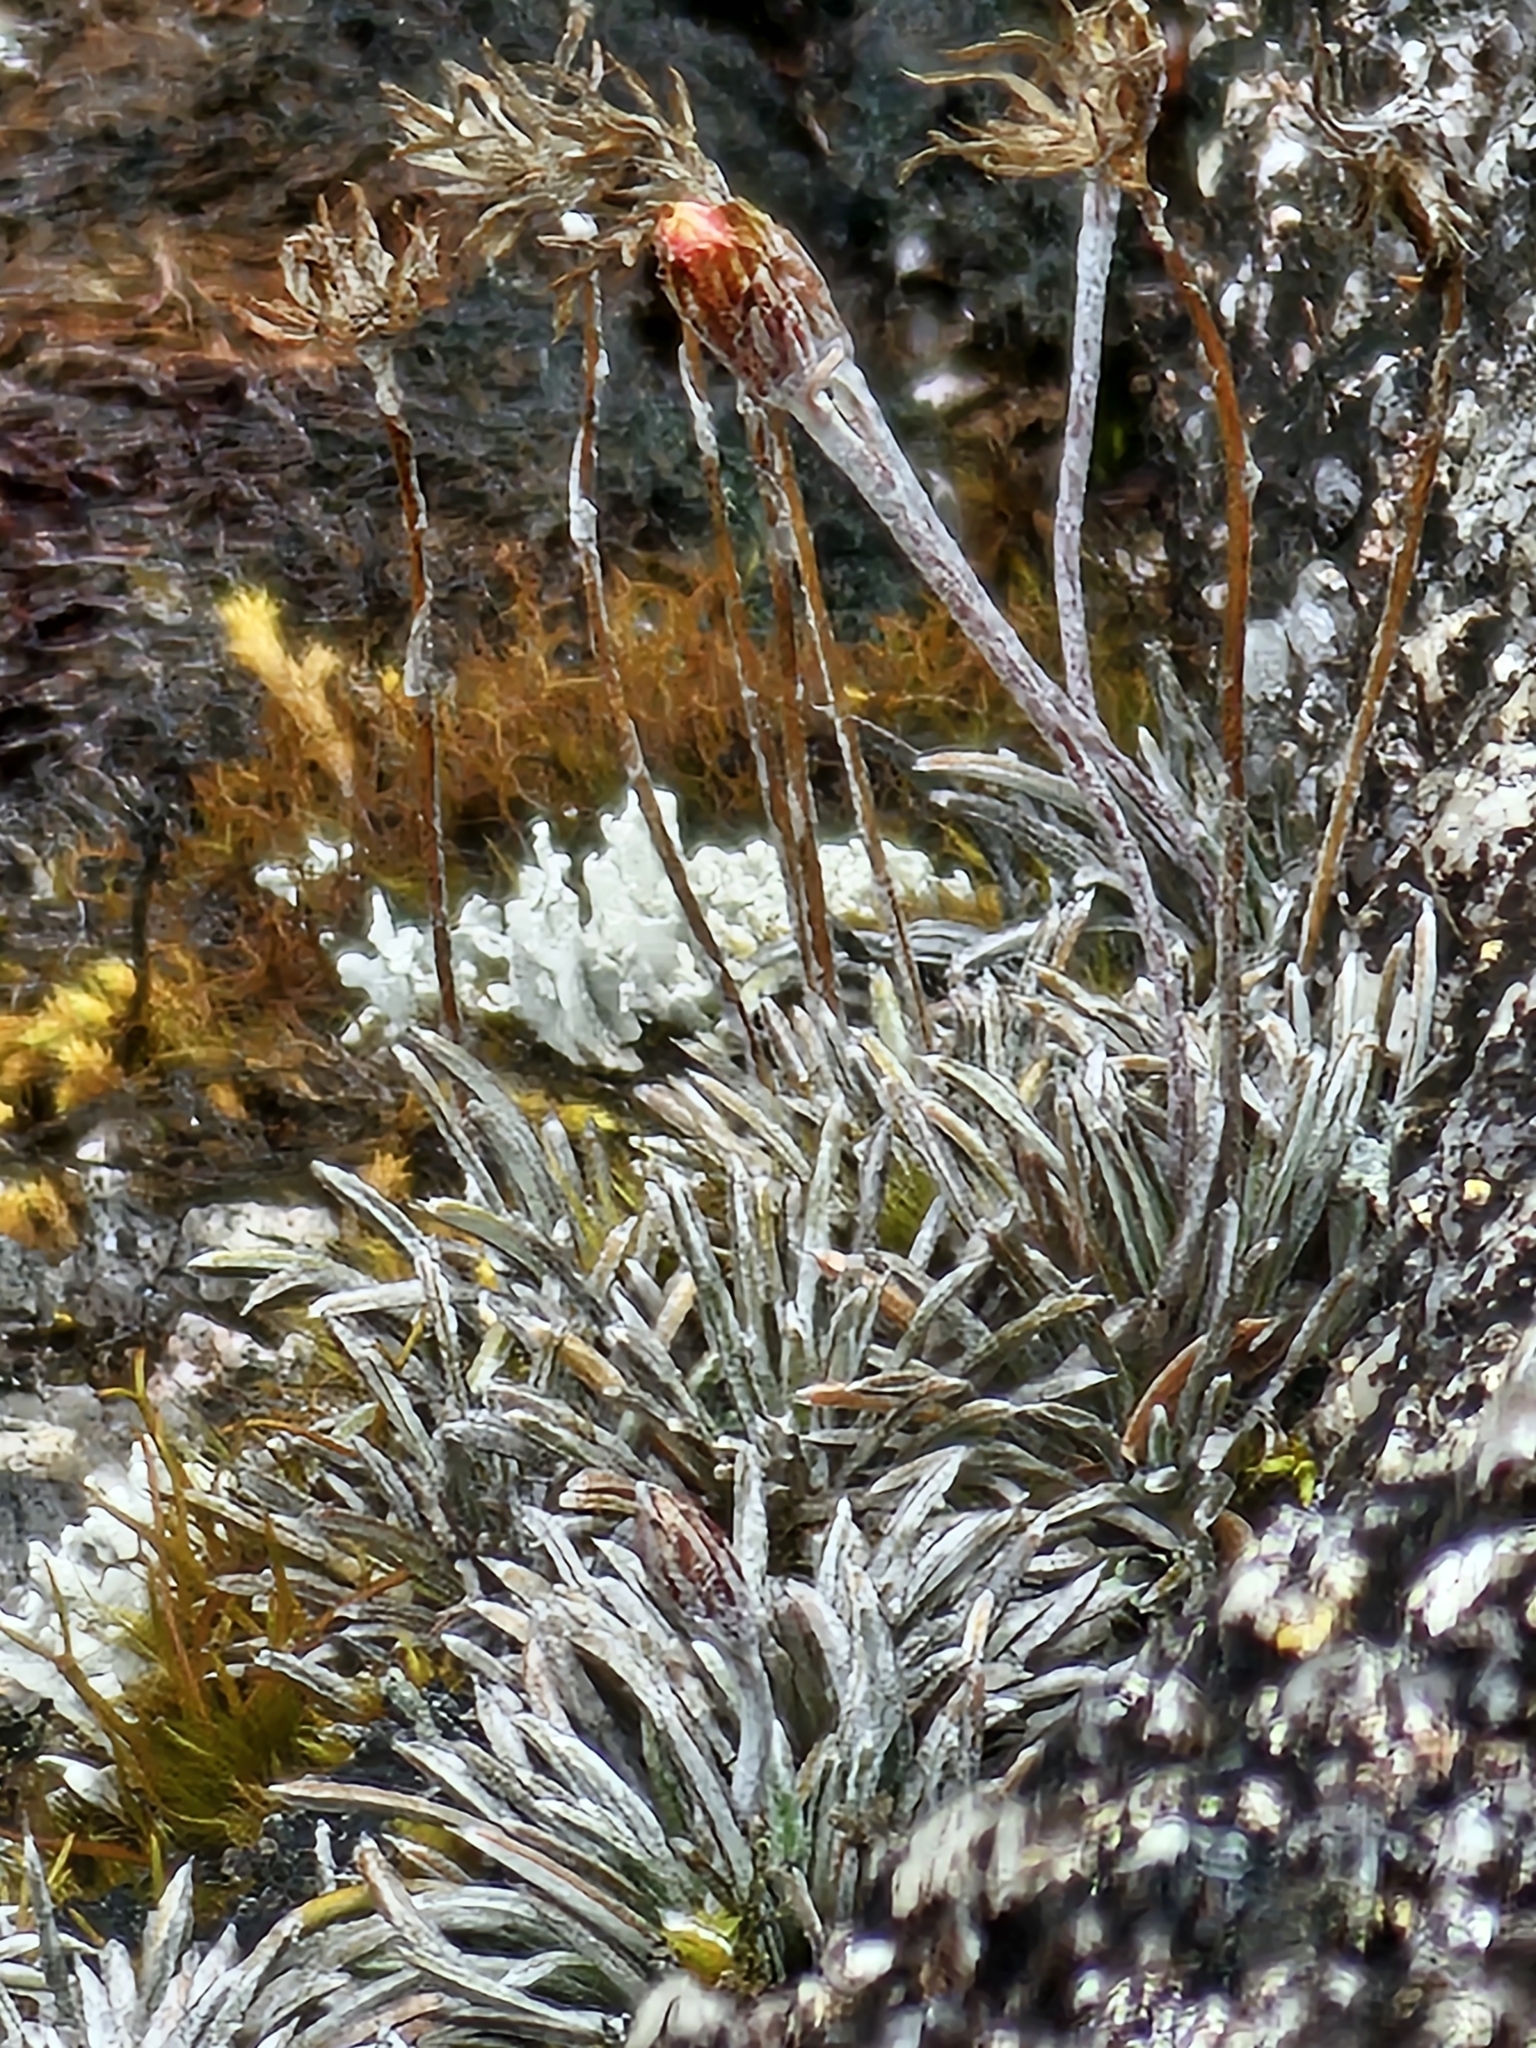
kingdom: Plantae
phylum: Tracheophyta
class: Magnoliopsida
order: Asterales
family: Asteraceae
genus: Celmisia
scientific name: Celmisia similis
